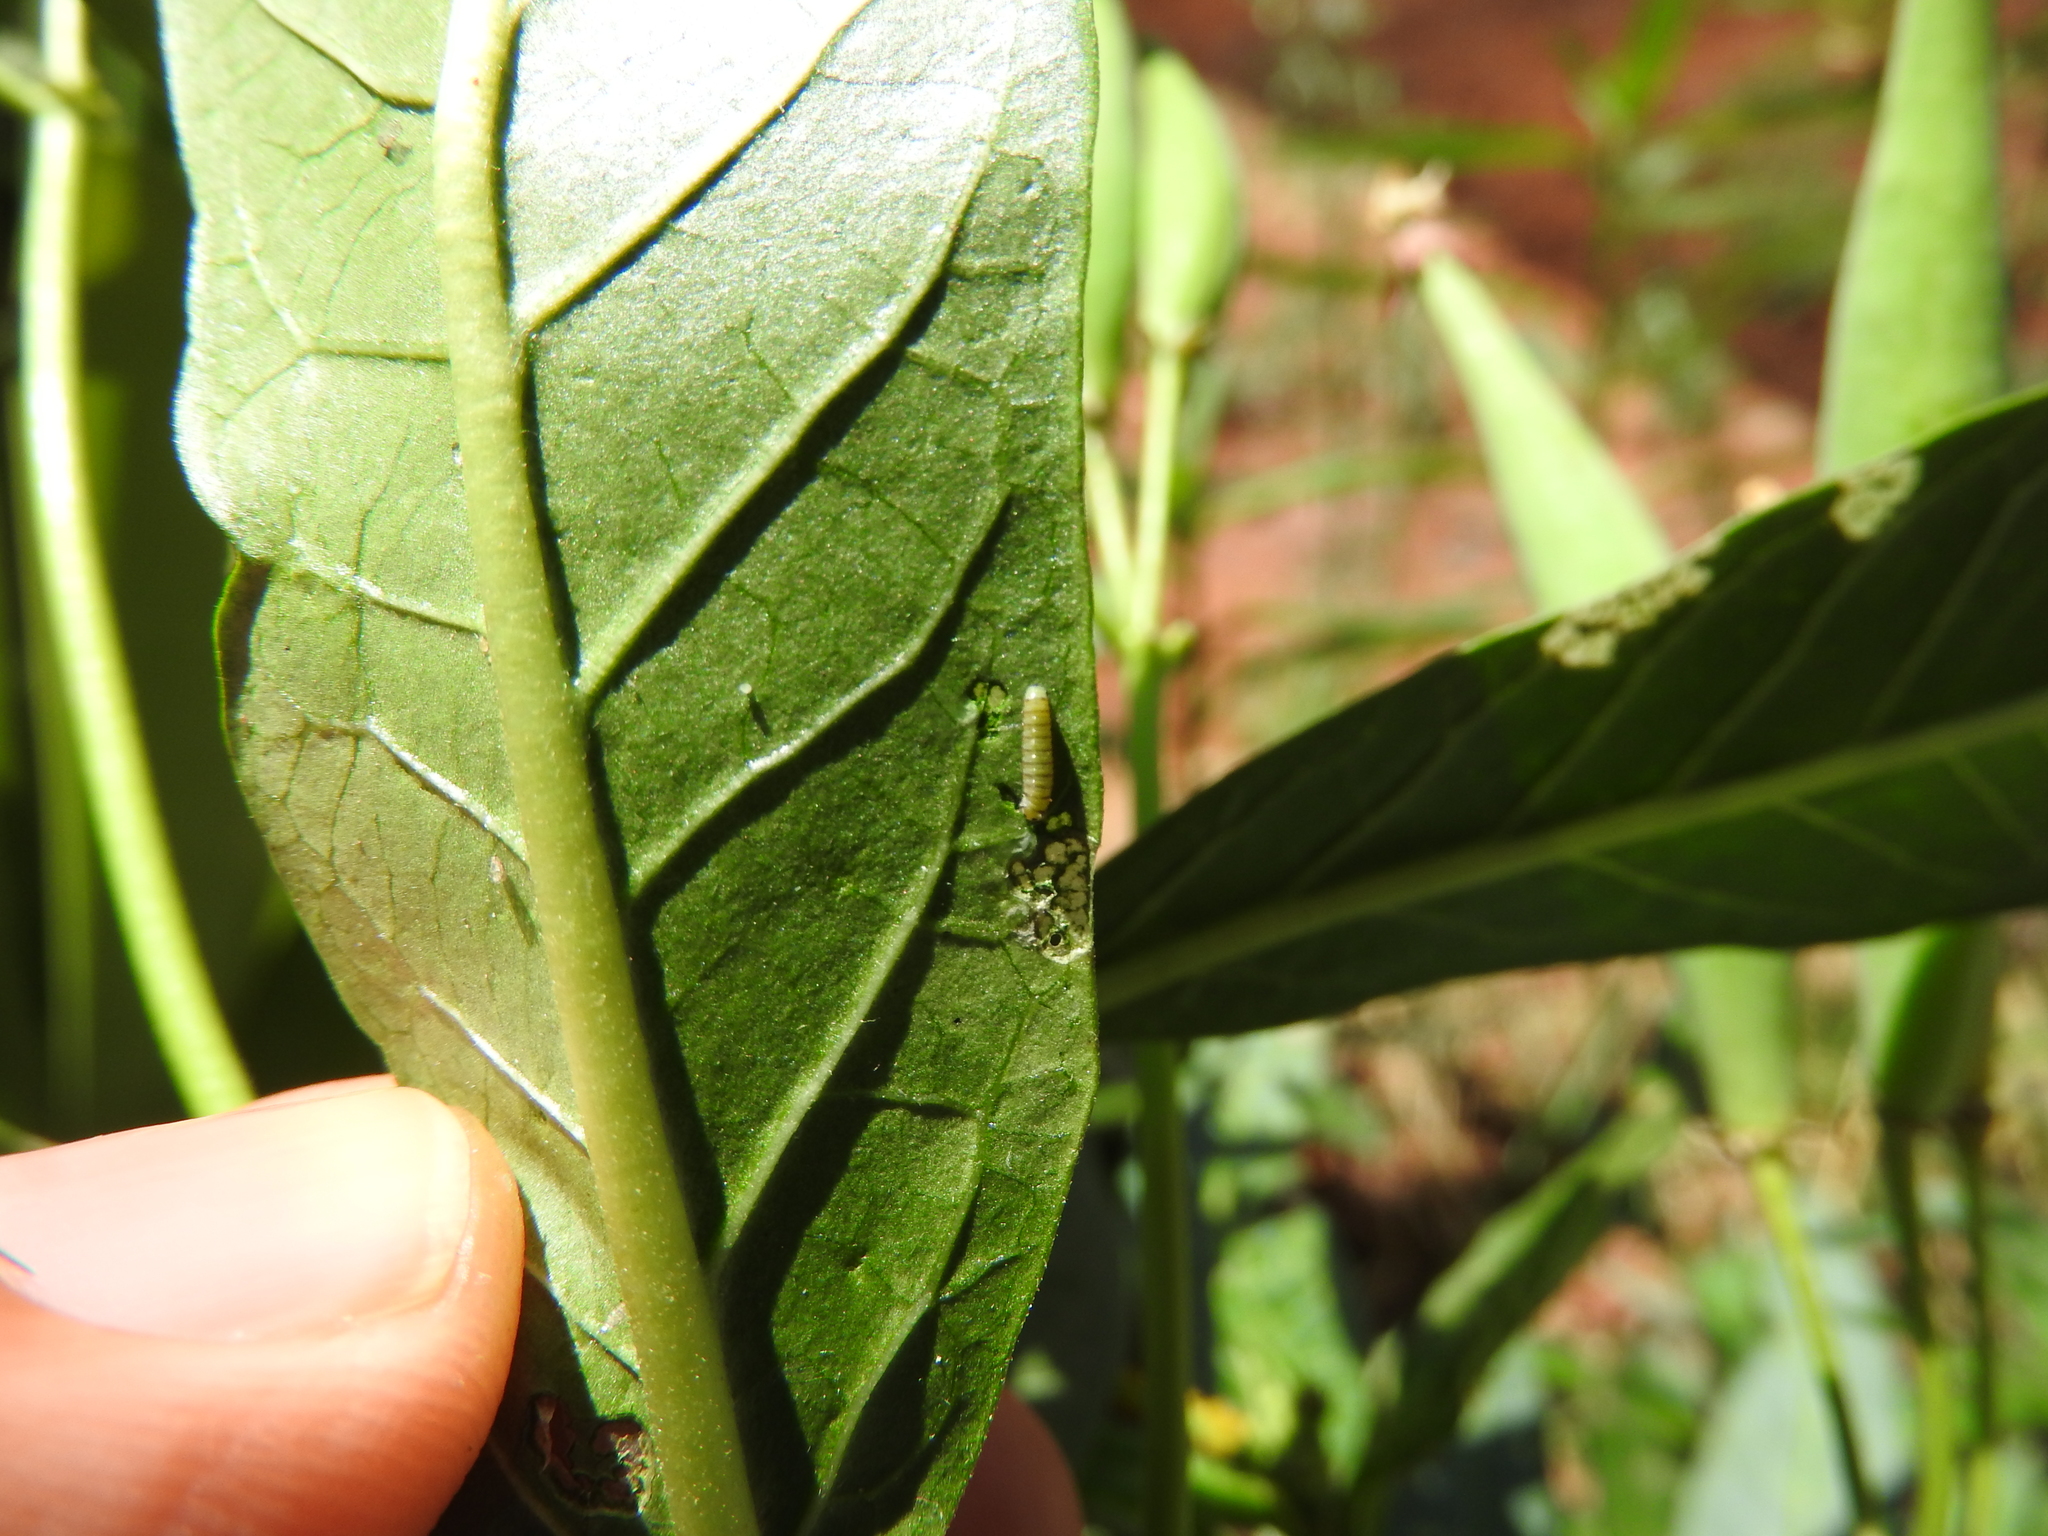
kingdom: Animalia
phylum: Arthropoda
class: Insecta
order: Lepidoptera
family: Nymphalidae
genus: Danaus
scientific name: Danaus plexippus
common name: Monarch
